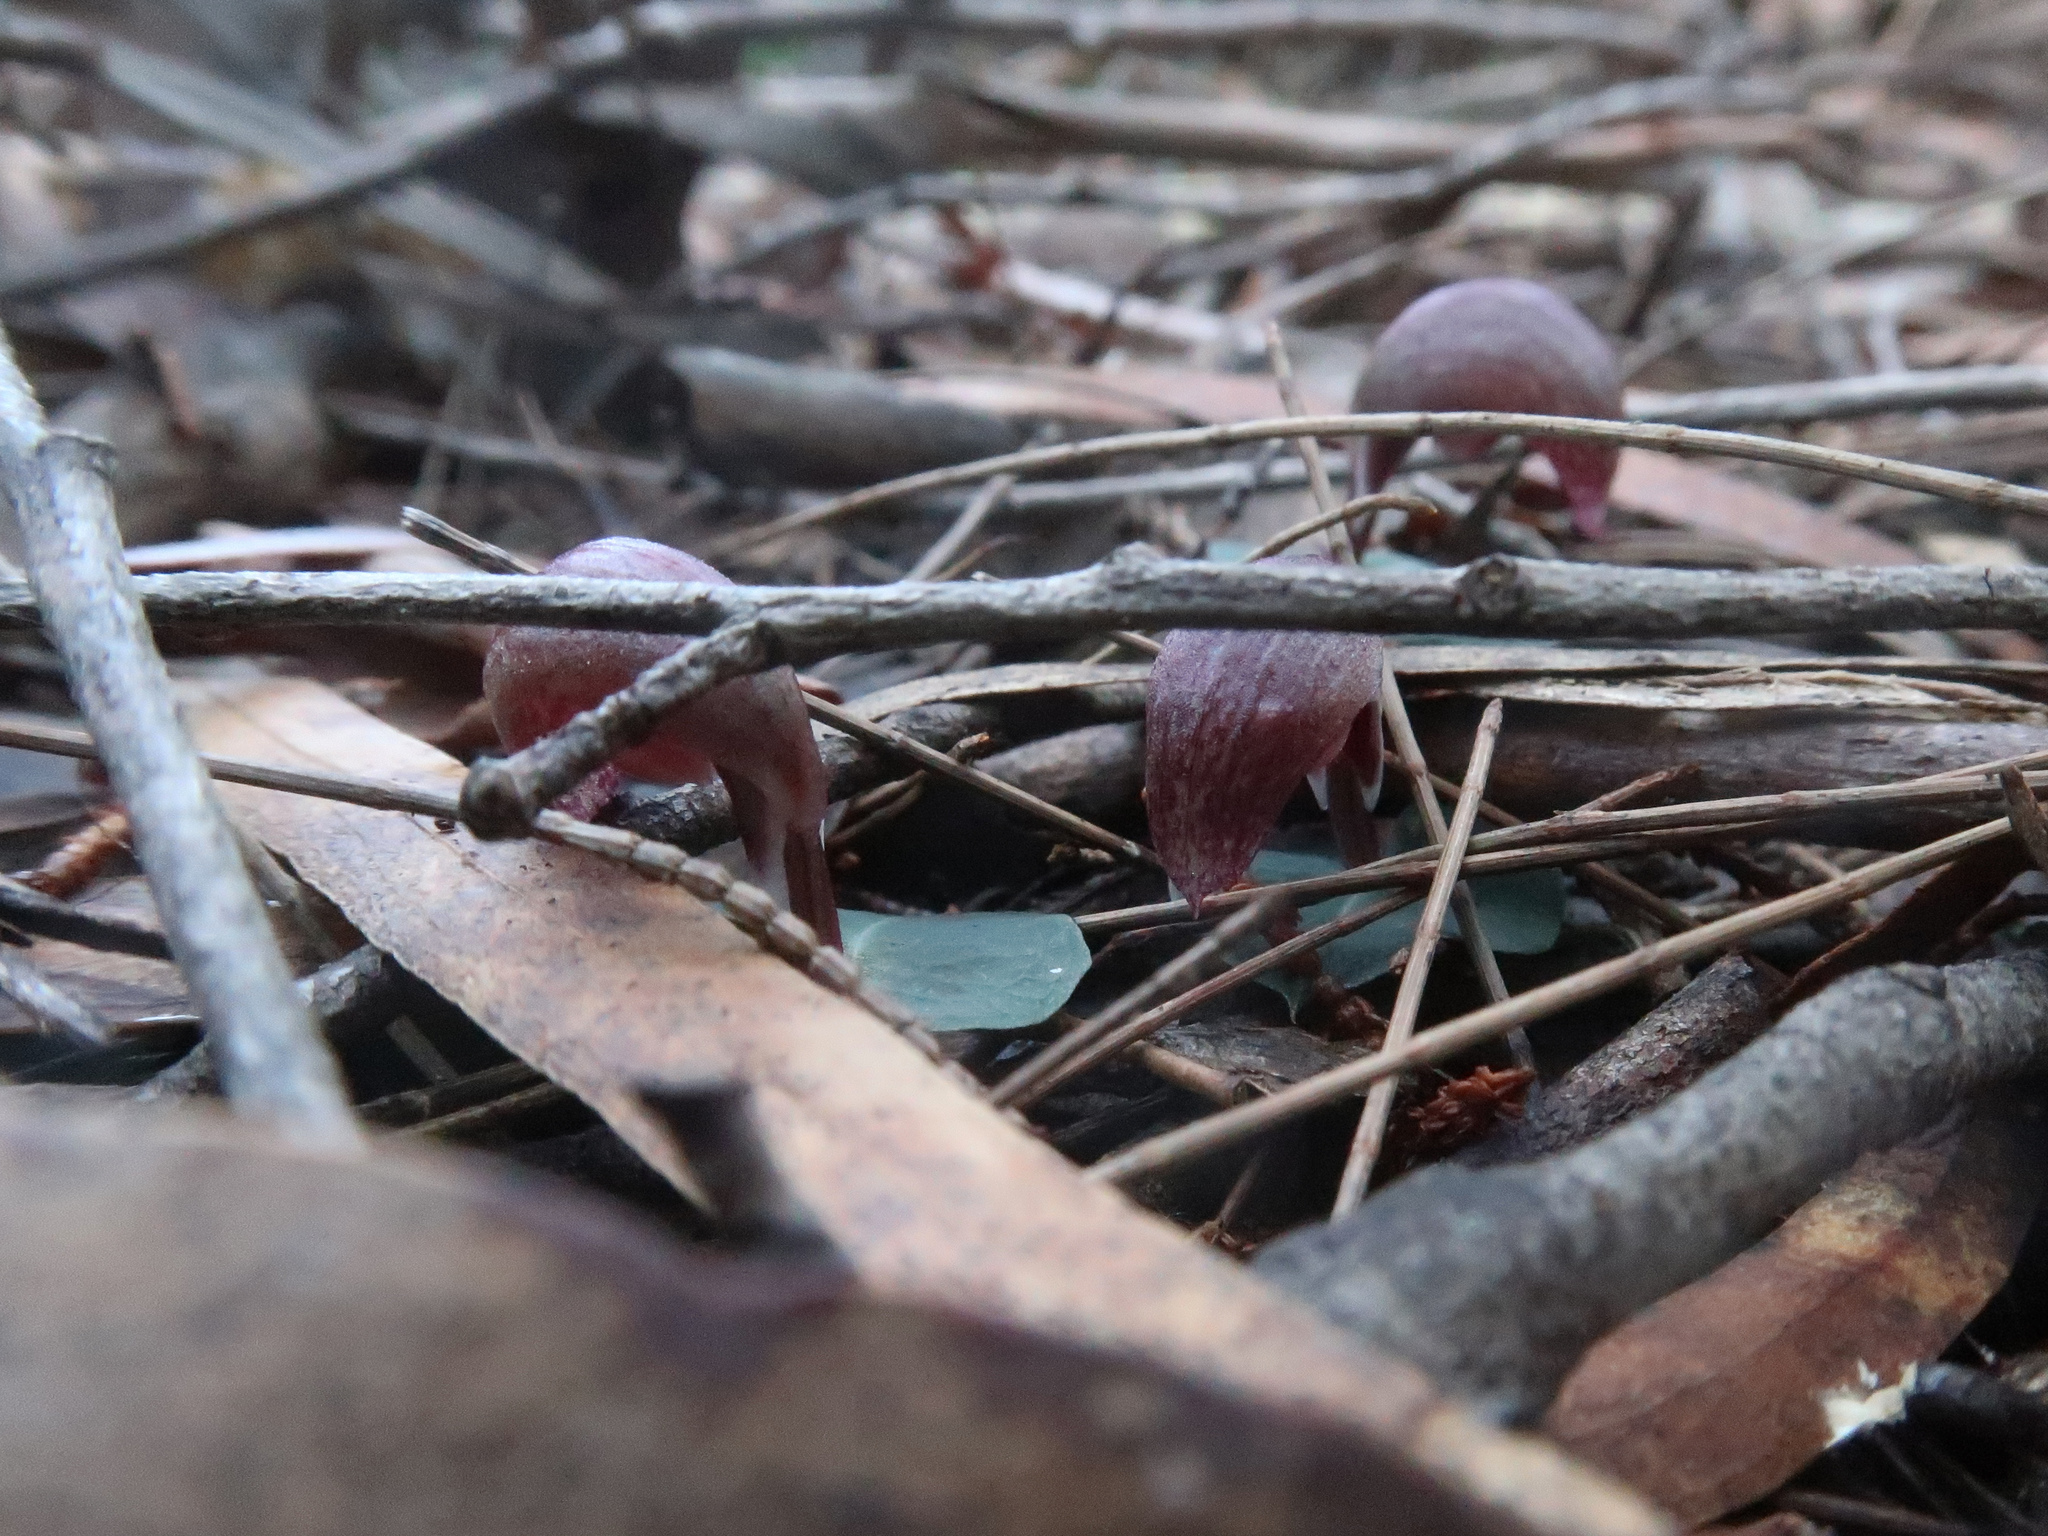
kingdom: Plantae
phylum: Tracheophyta
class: Liliopsida
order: Asparagales
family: Orchidaceae
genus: Corybas
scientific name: Corybas aconitiflorus
